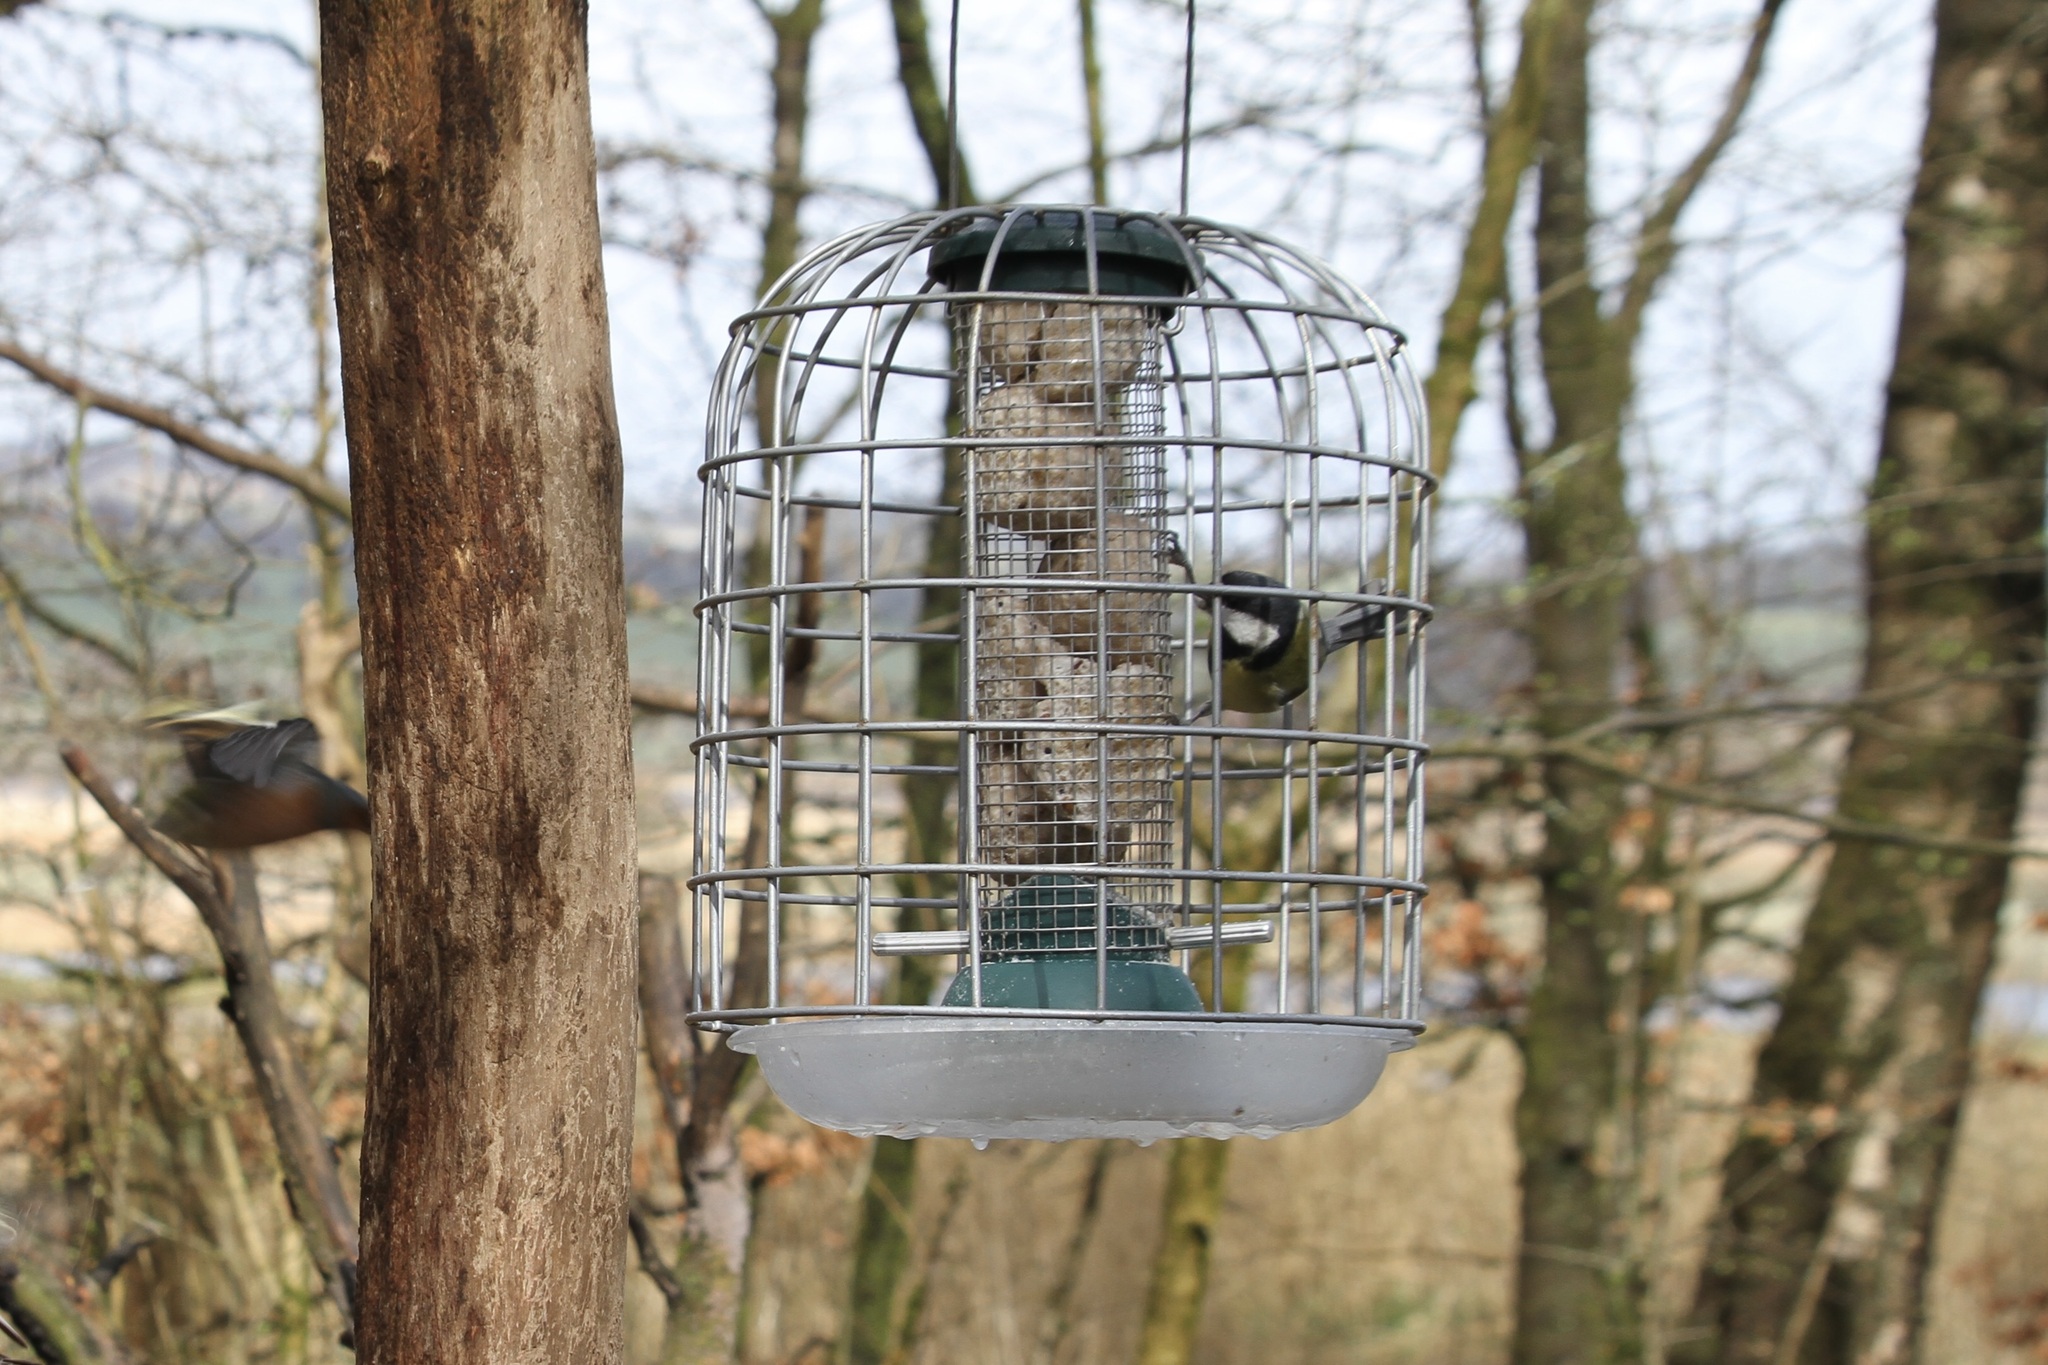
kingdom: Animalia
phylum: Chordata
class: Aves
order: Passeriformes
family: Paridae
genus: Parus
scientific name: Parus major
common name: Great tit
